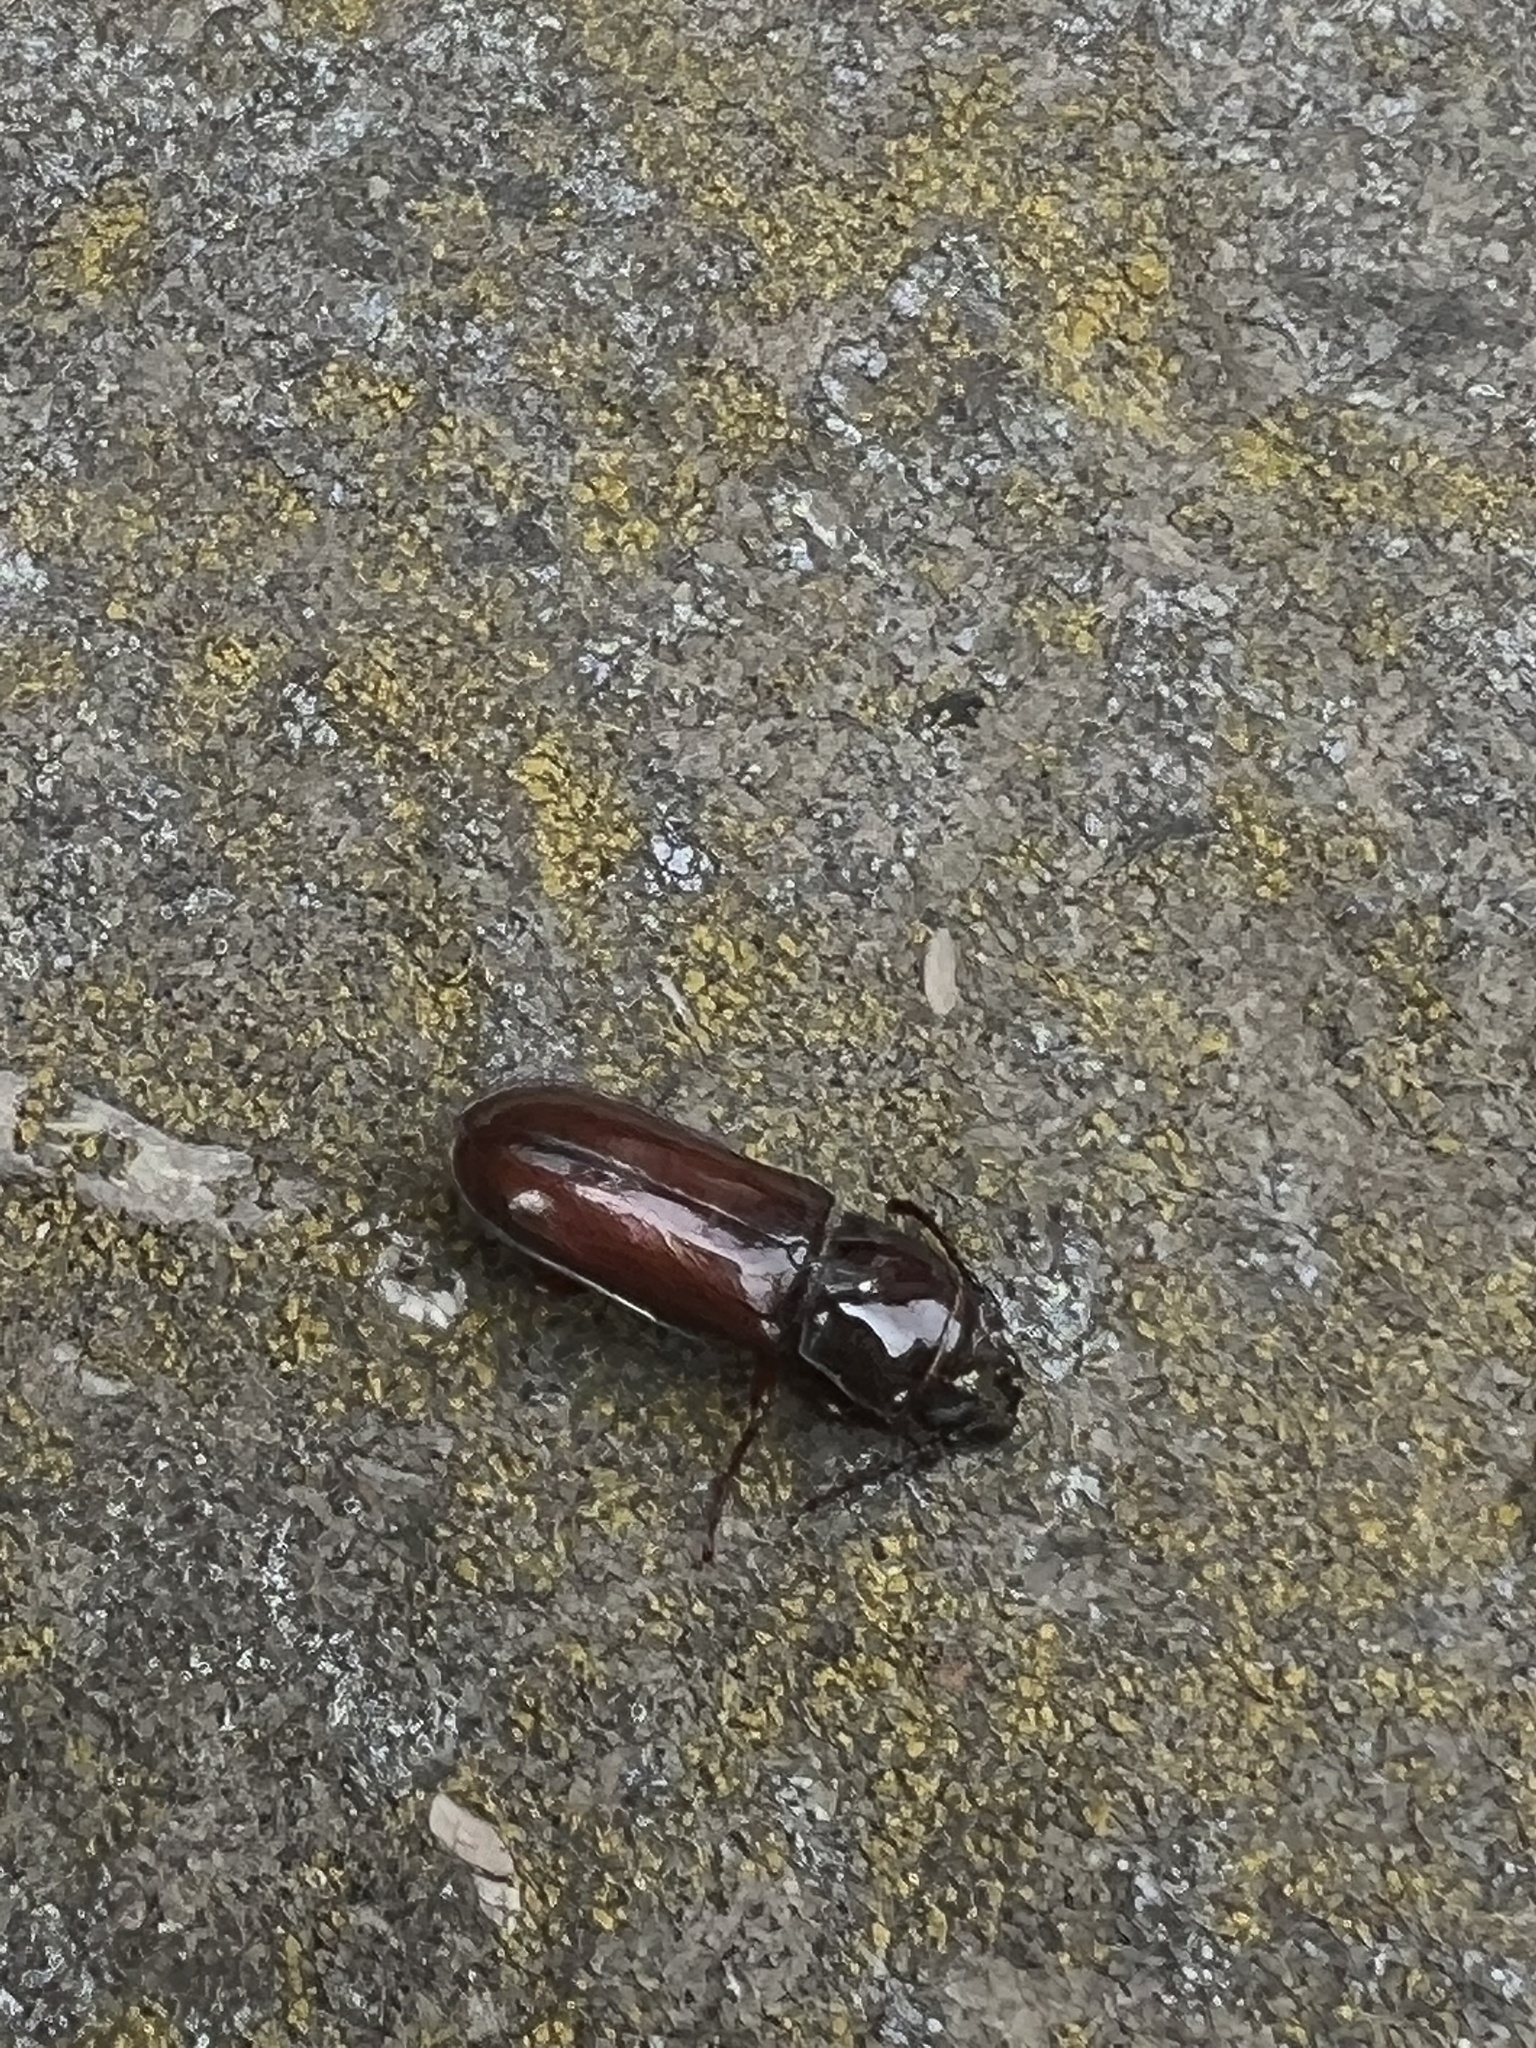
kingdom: Animalia
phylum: Arthropoda
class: Insecta
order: Coleoptera
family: Cerambycidae
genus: Neandra
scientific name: Neandra brunnea
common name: Pole borer
